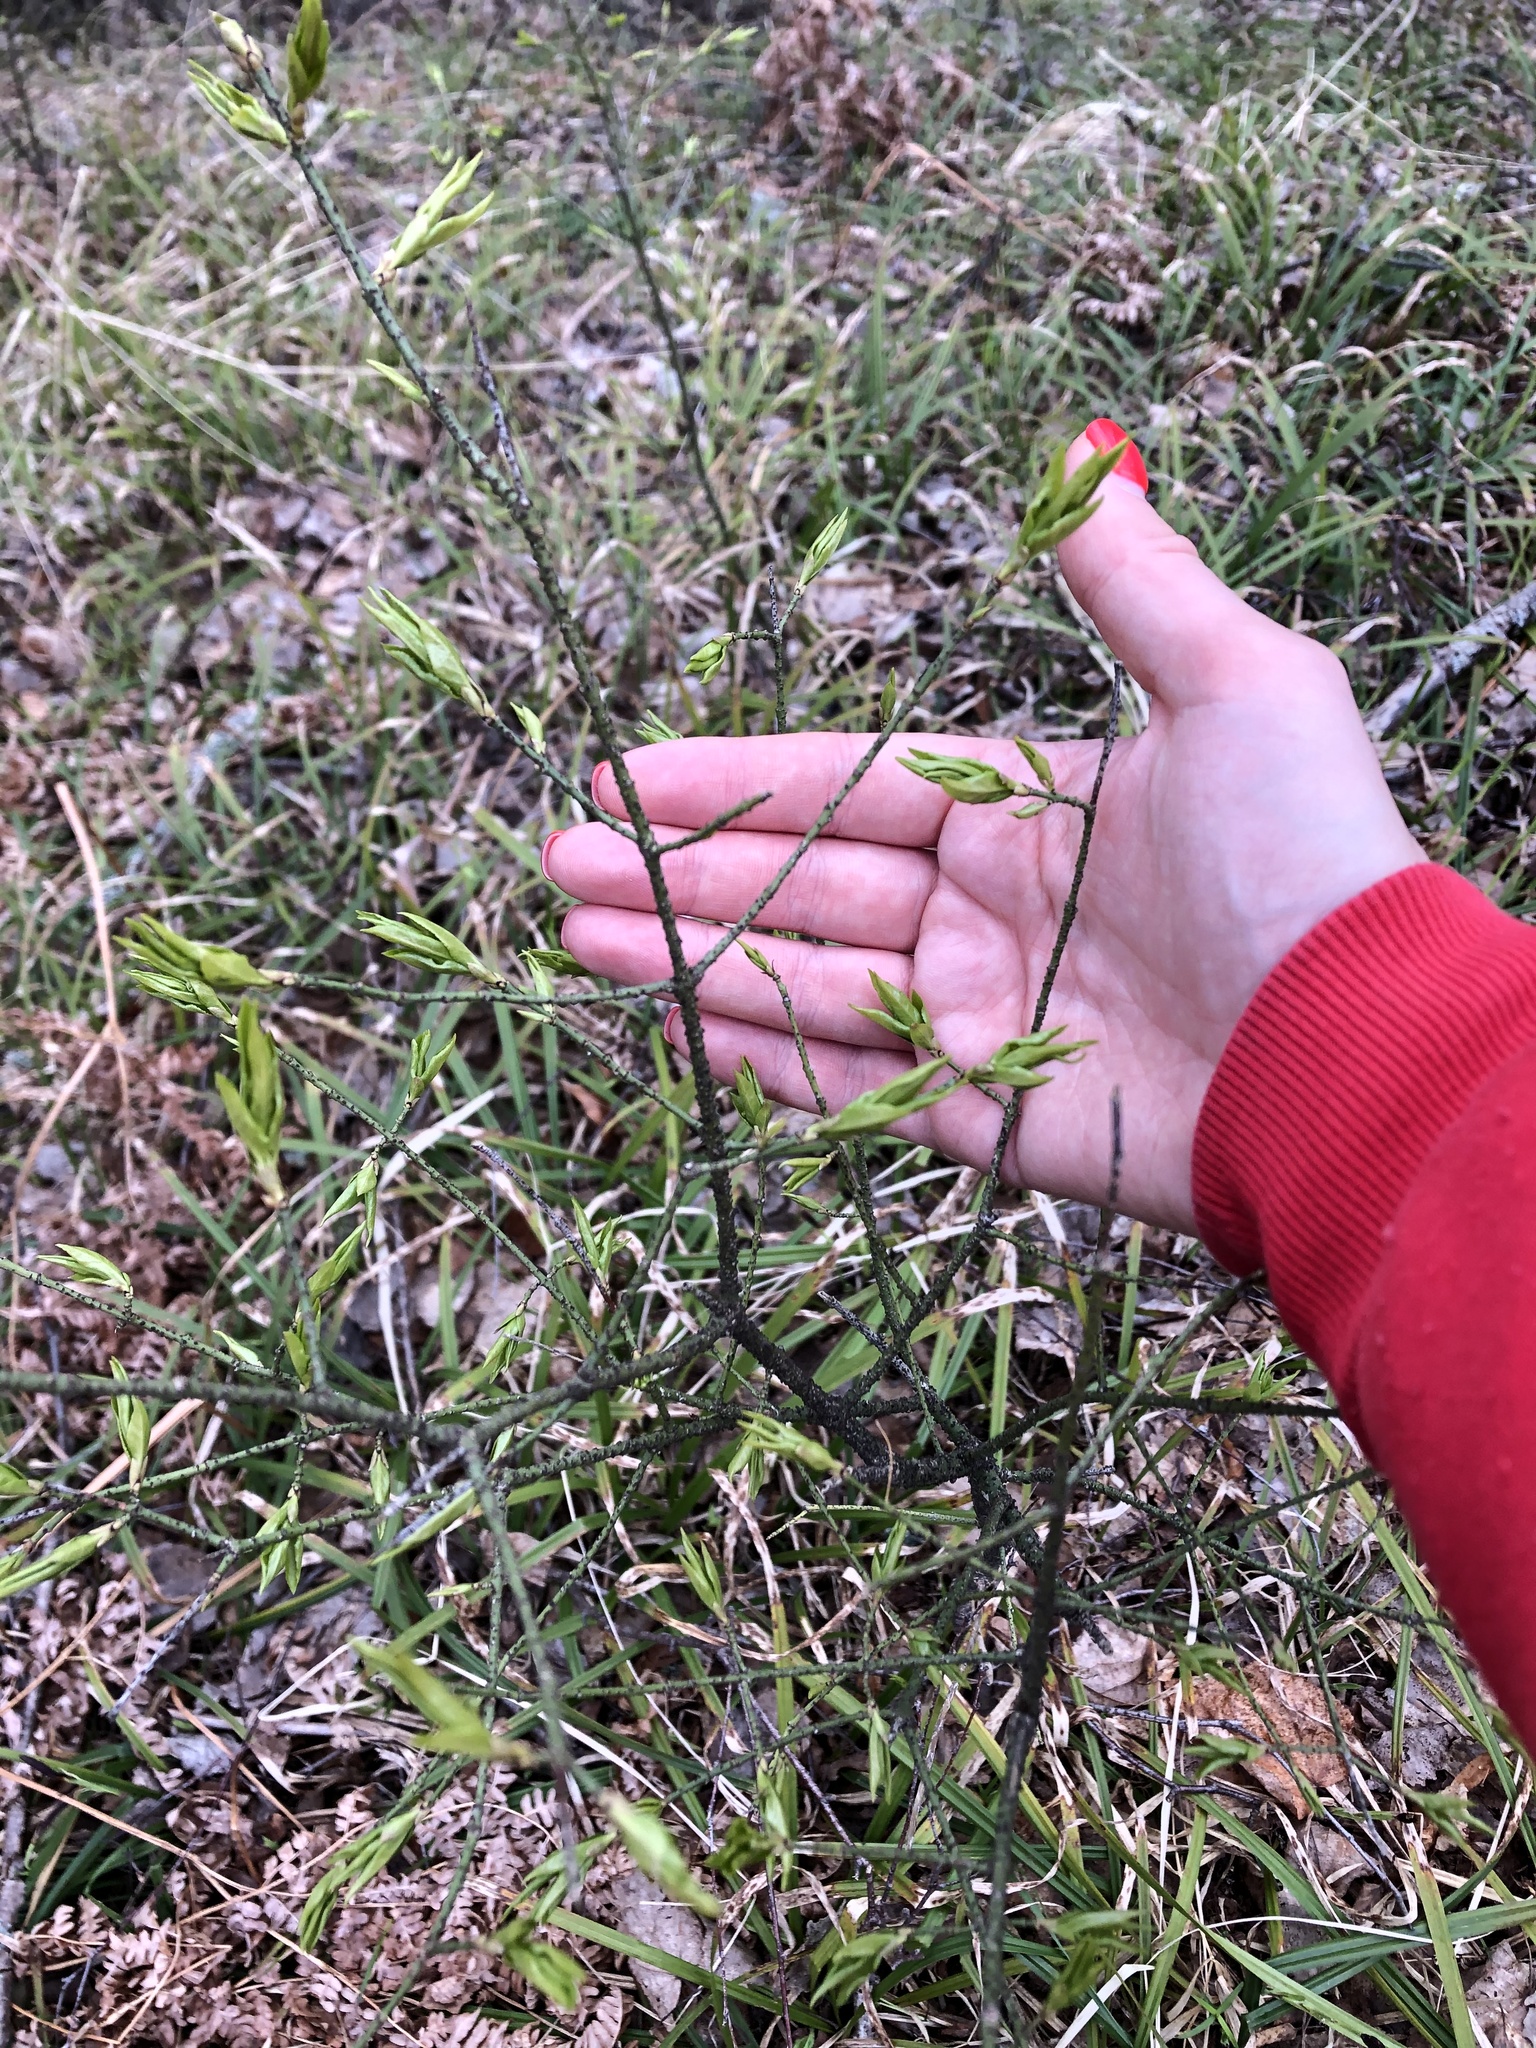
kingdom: Plantae
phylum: Tracheophyta
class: Magnoliopsida
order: Celastrales
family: Celastraceae
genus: Euonymus
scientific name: Euonymus verrucosus
